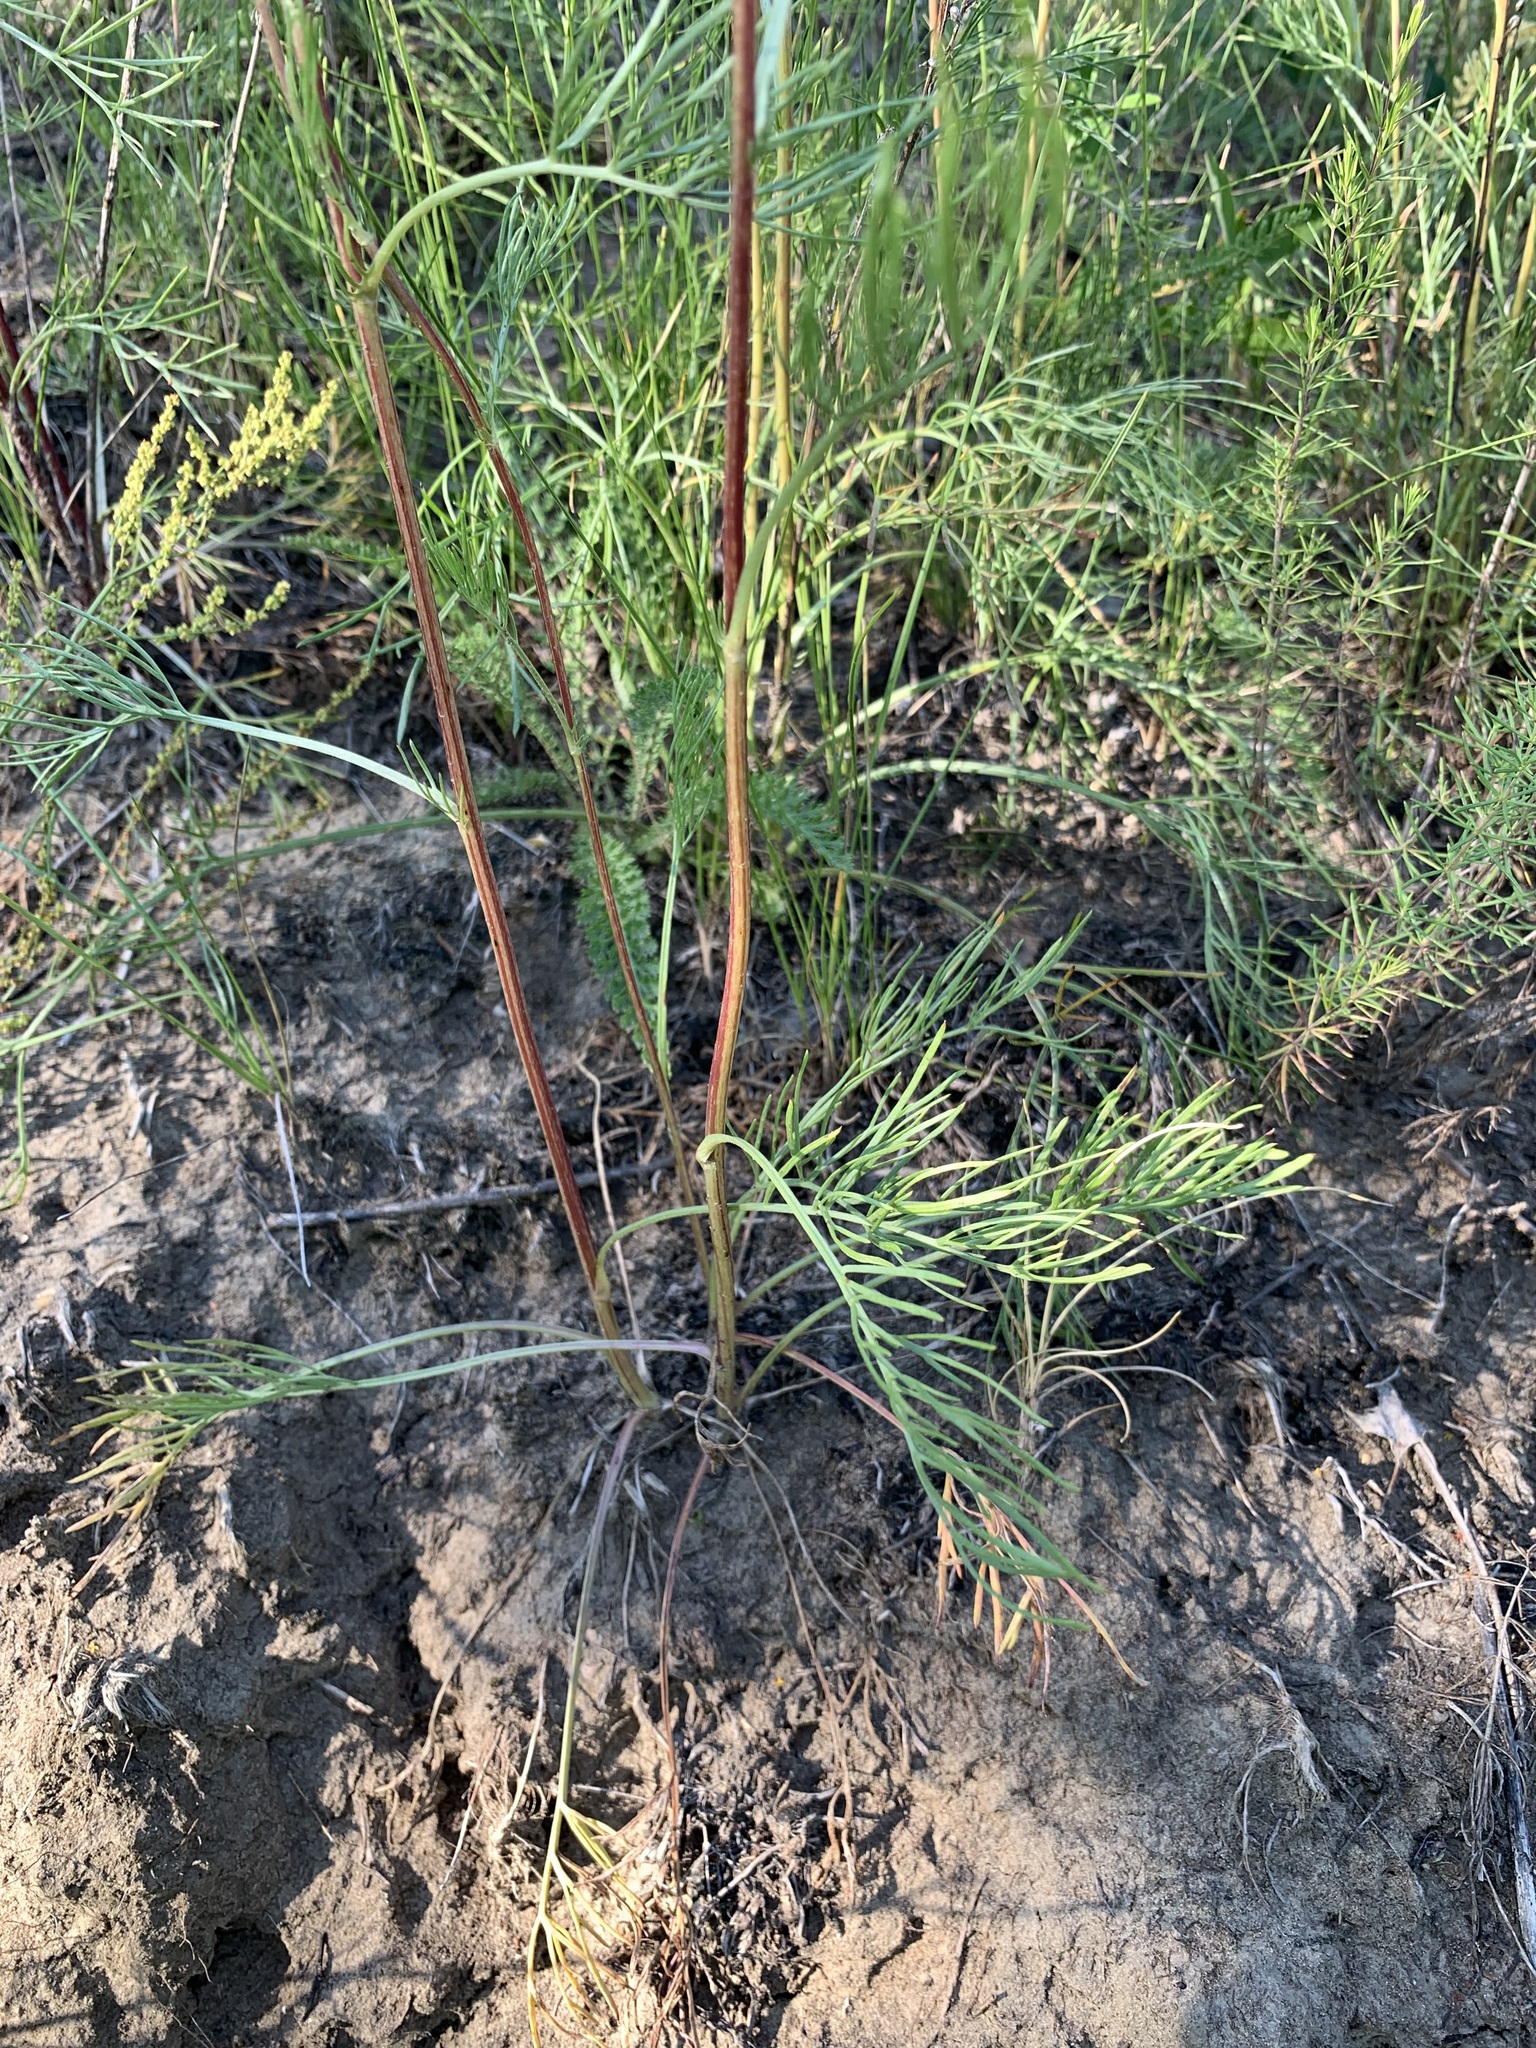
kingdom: Plantae
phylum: Tracheophyta
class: Magnoliopsida
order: Asterales
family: Asteraceae
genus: Artemisia
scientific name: Artemisia campestris
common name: Field wormwood
